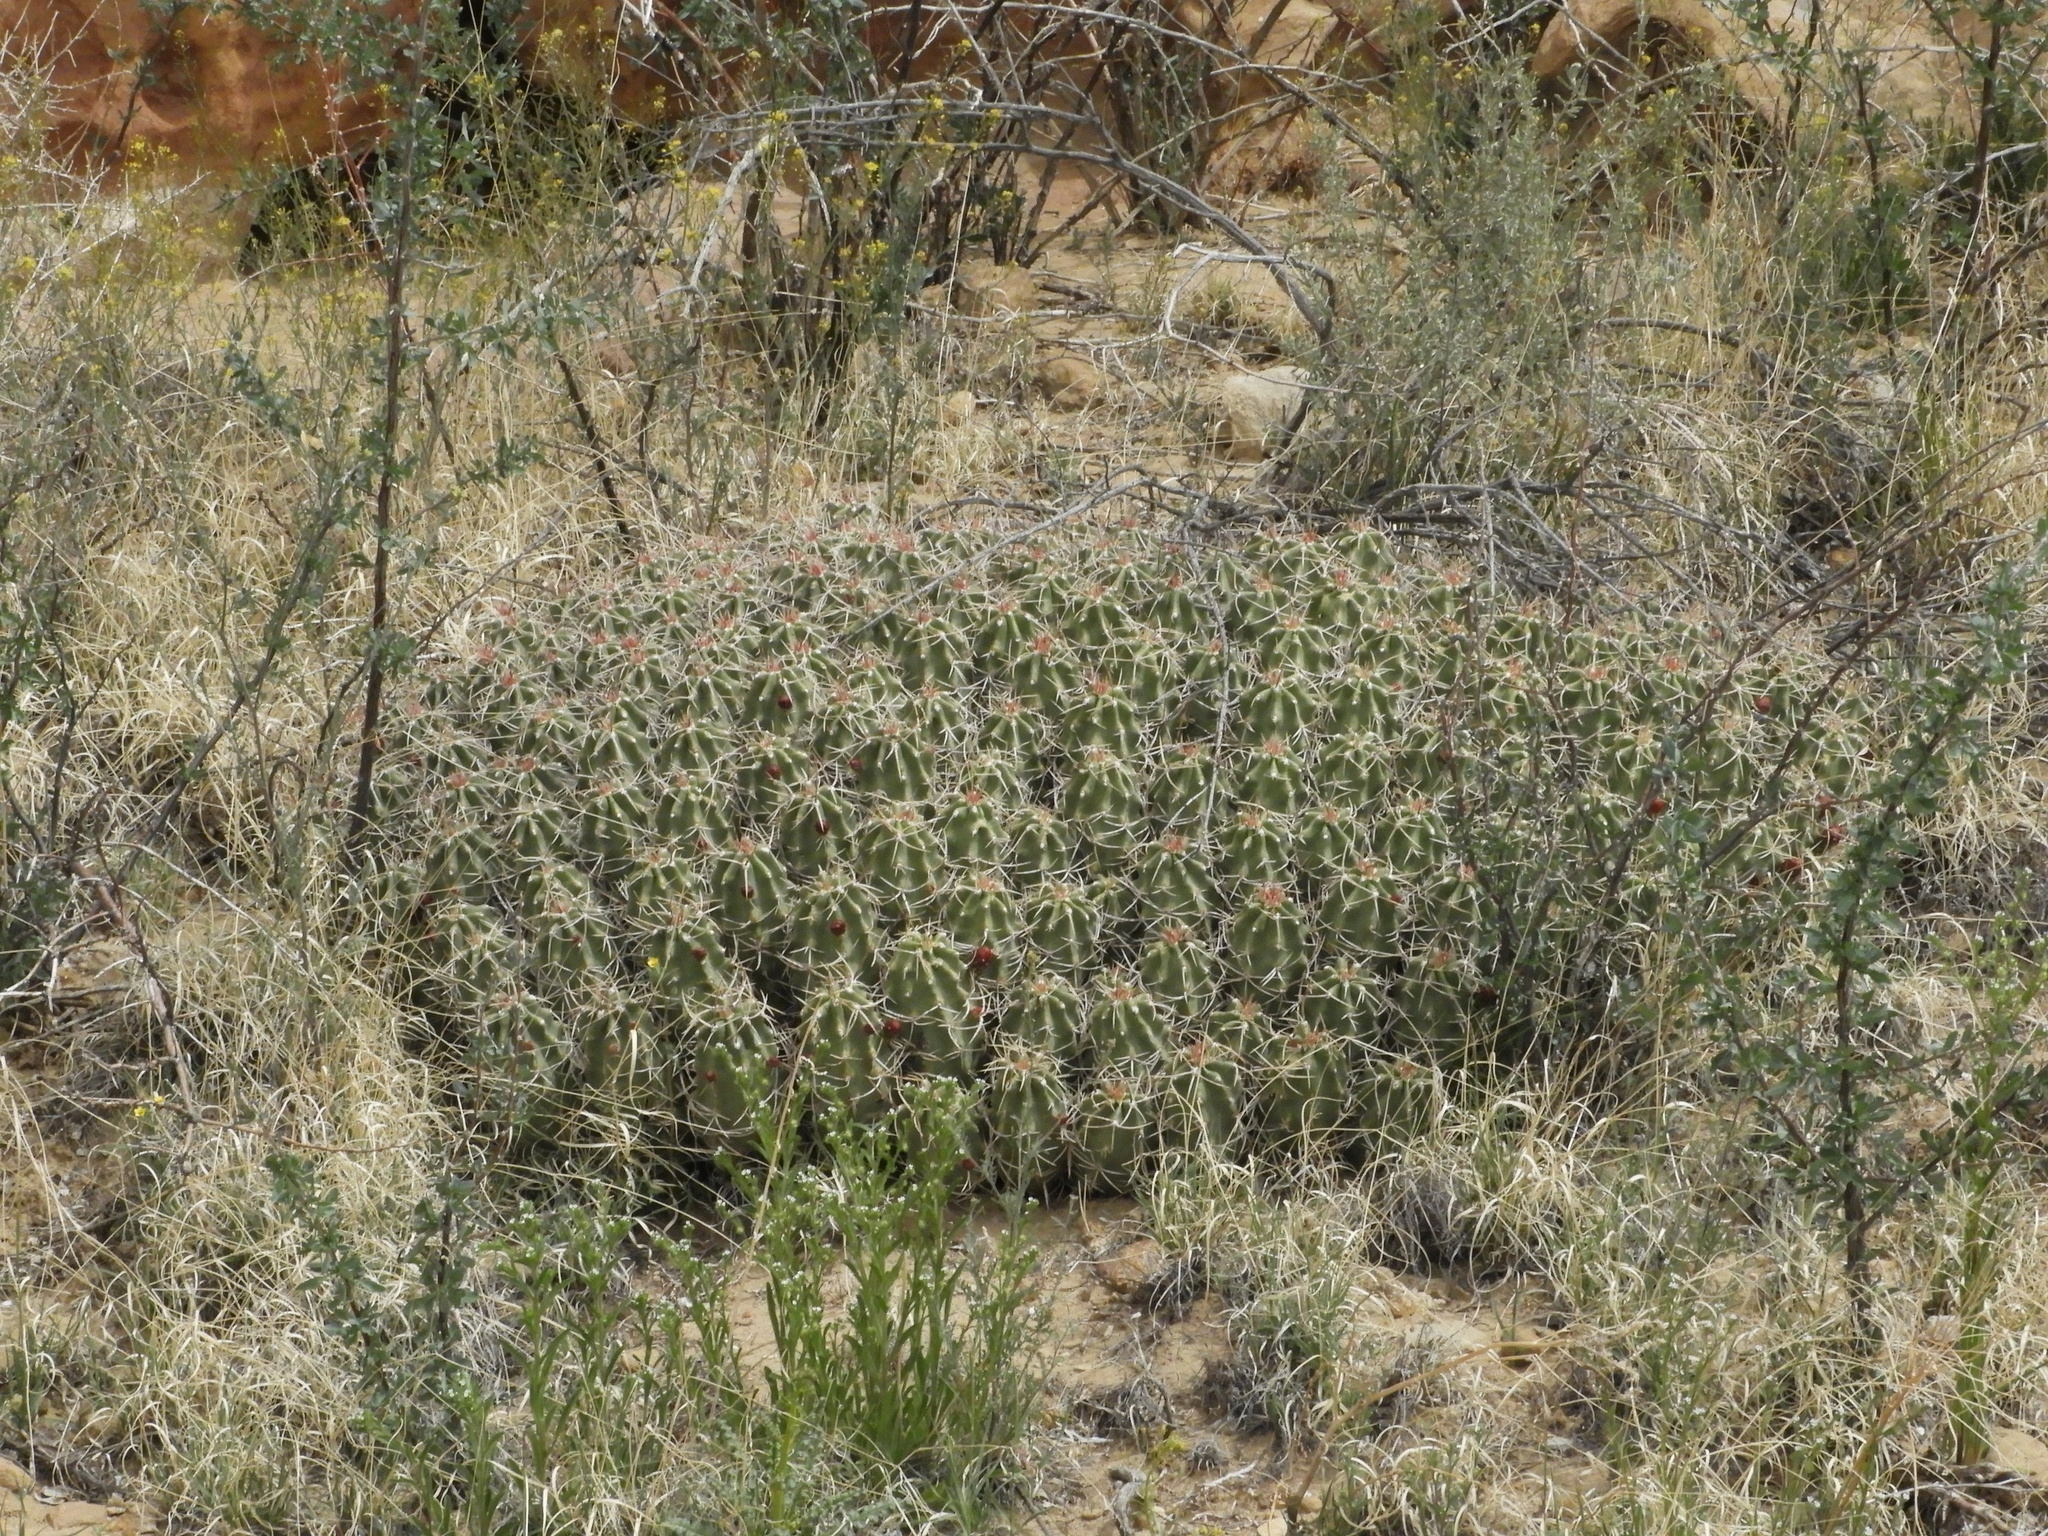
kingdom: Plantae
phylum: Tracheophyta
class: Magnoliopsida
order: Caryophyllales
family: Cactaceae
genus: Echinocereus
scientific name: Echinocereus triglochidiatus
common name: Claretcup hedgehog
